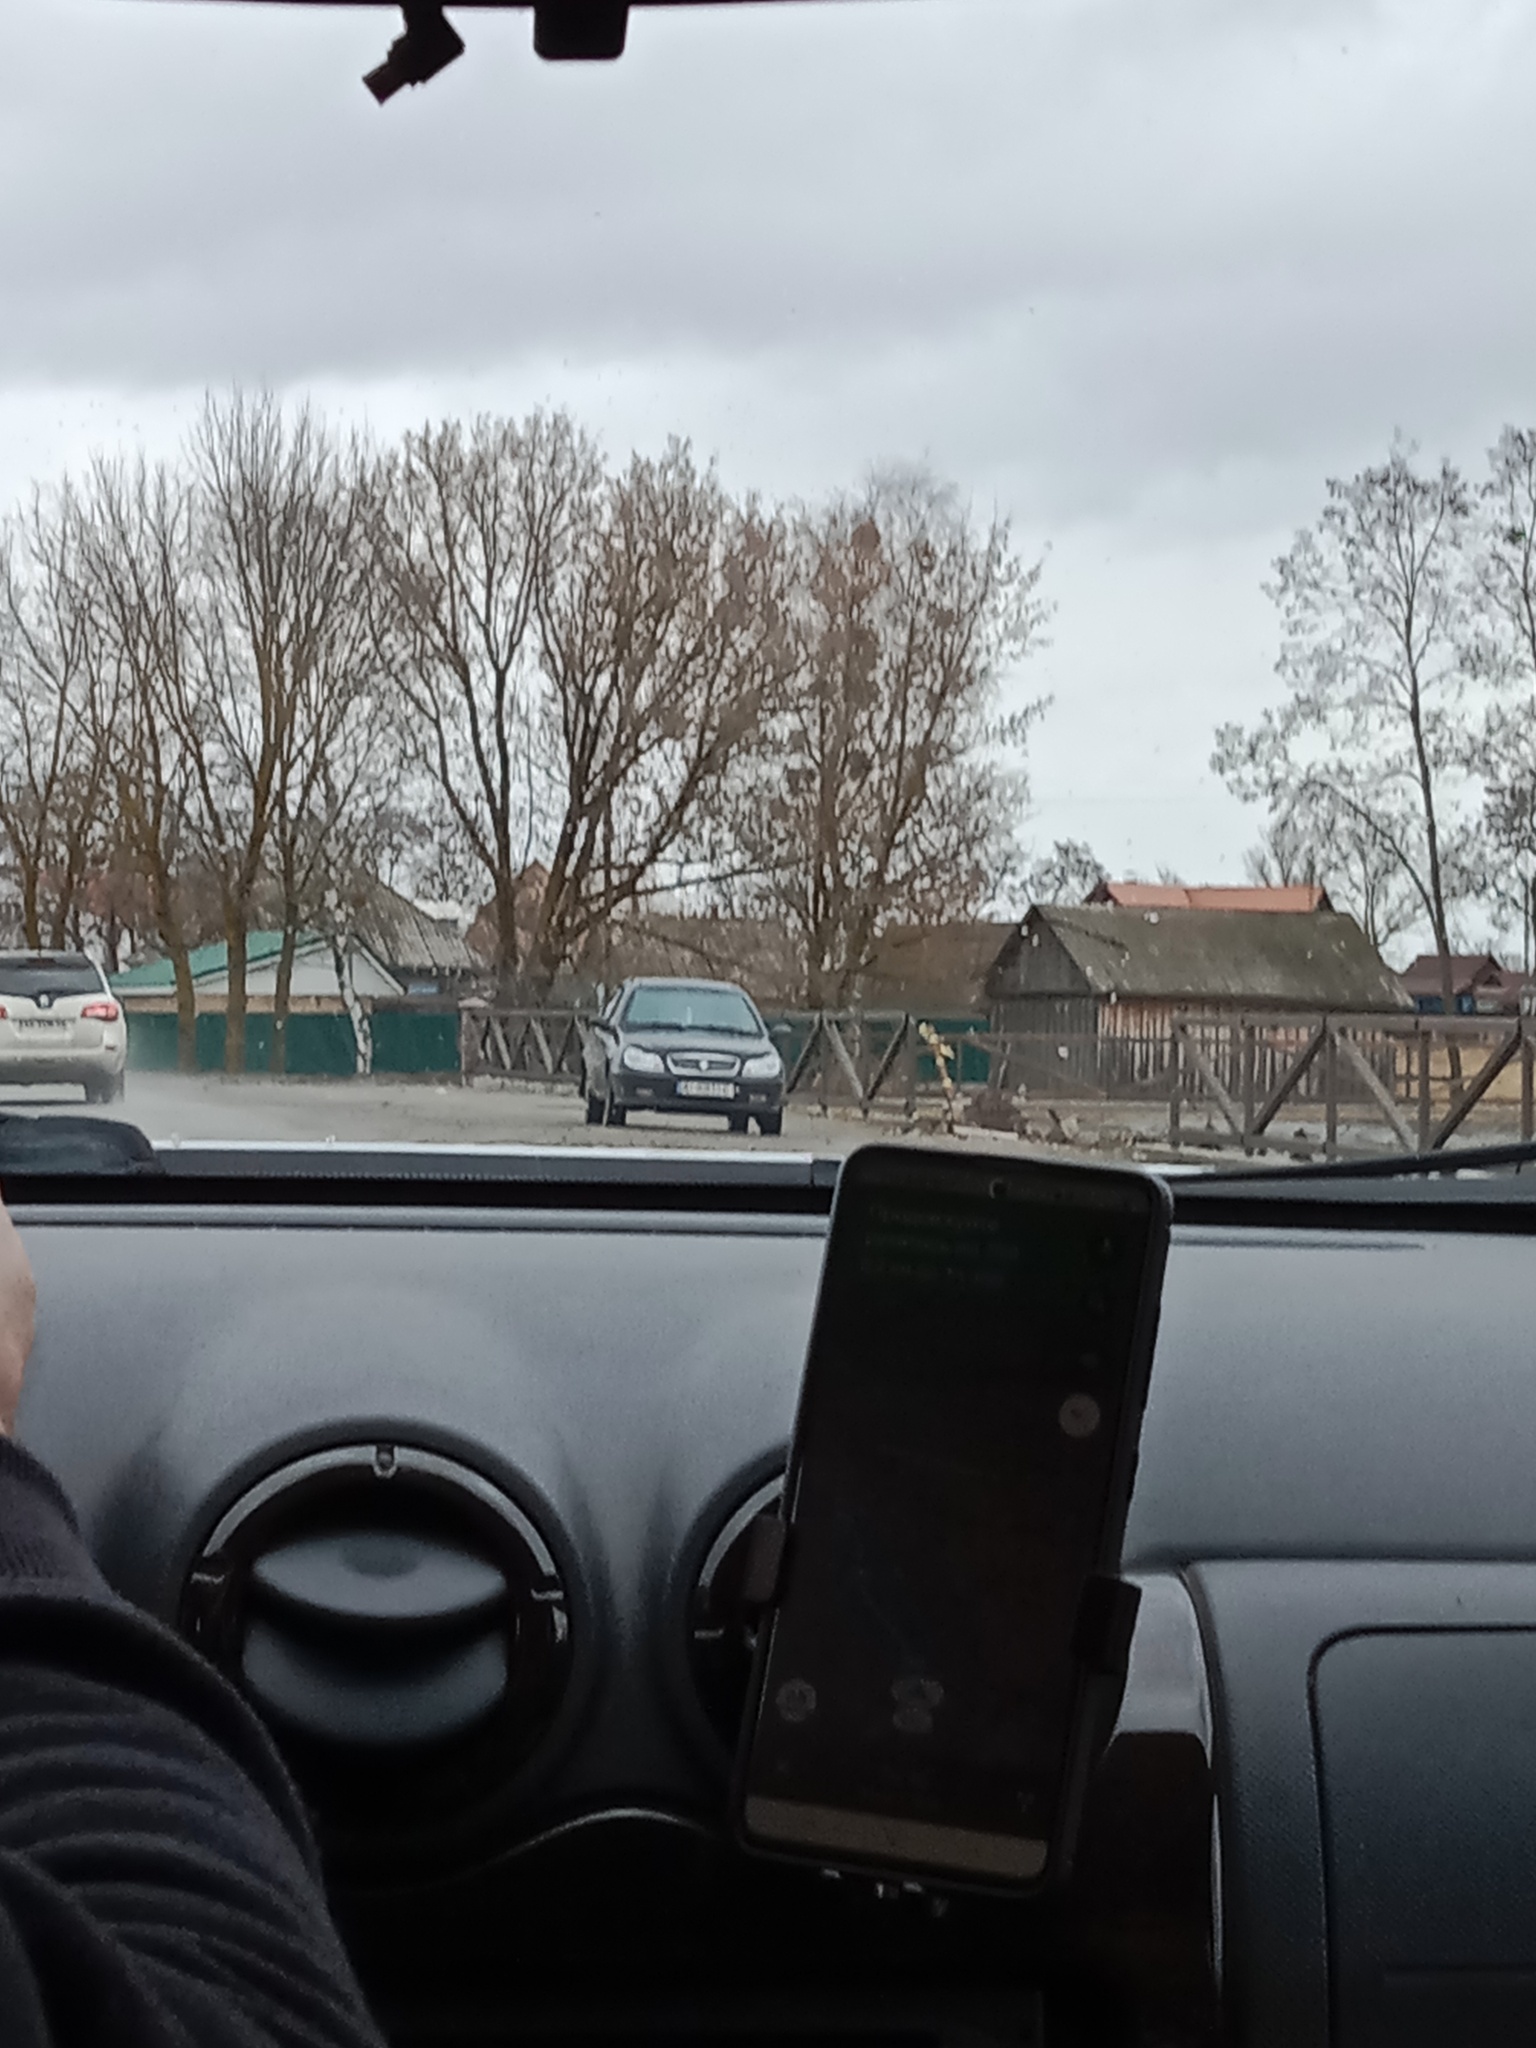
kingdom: Plantae
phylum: Tracheophyta
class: Magnoliopsida
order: Santalales
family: Viscaceae
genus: Viscum
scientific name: Viscum album
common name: Mistletoe
